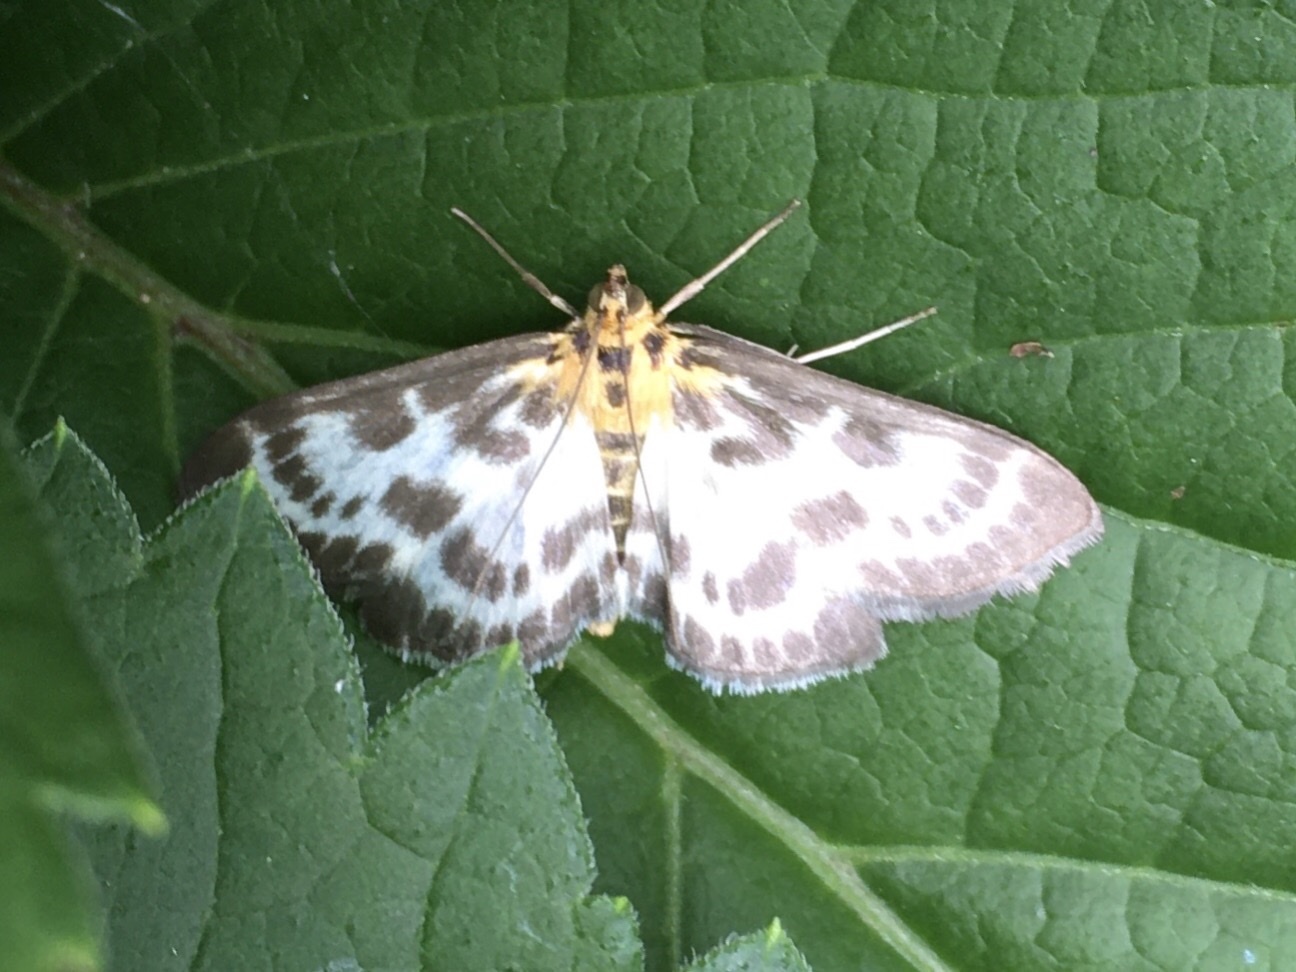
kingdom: Animalia
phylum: Arthropoda
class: Insecta
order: Lepidoptera
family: Crambidae
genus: Anania
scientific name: Anania hortulata
